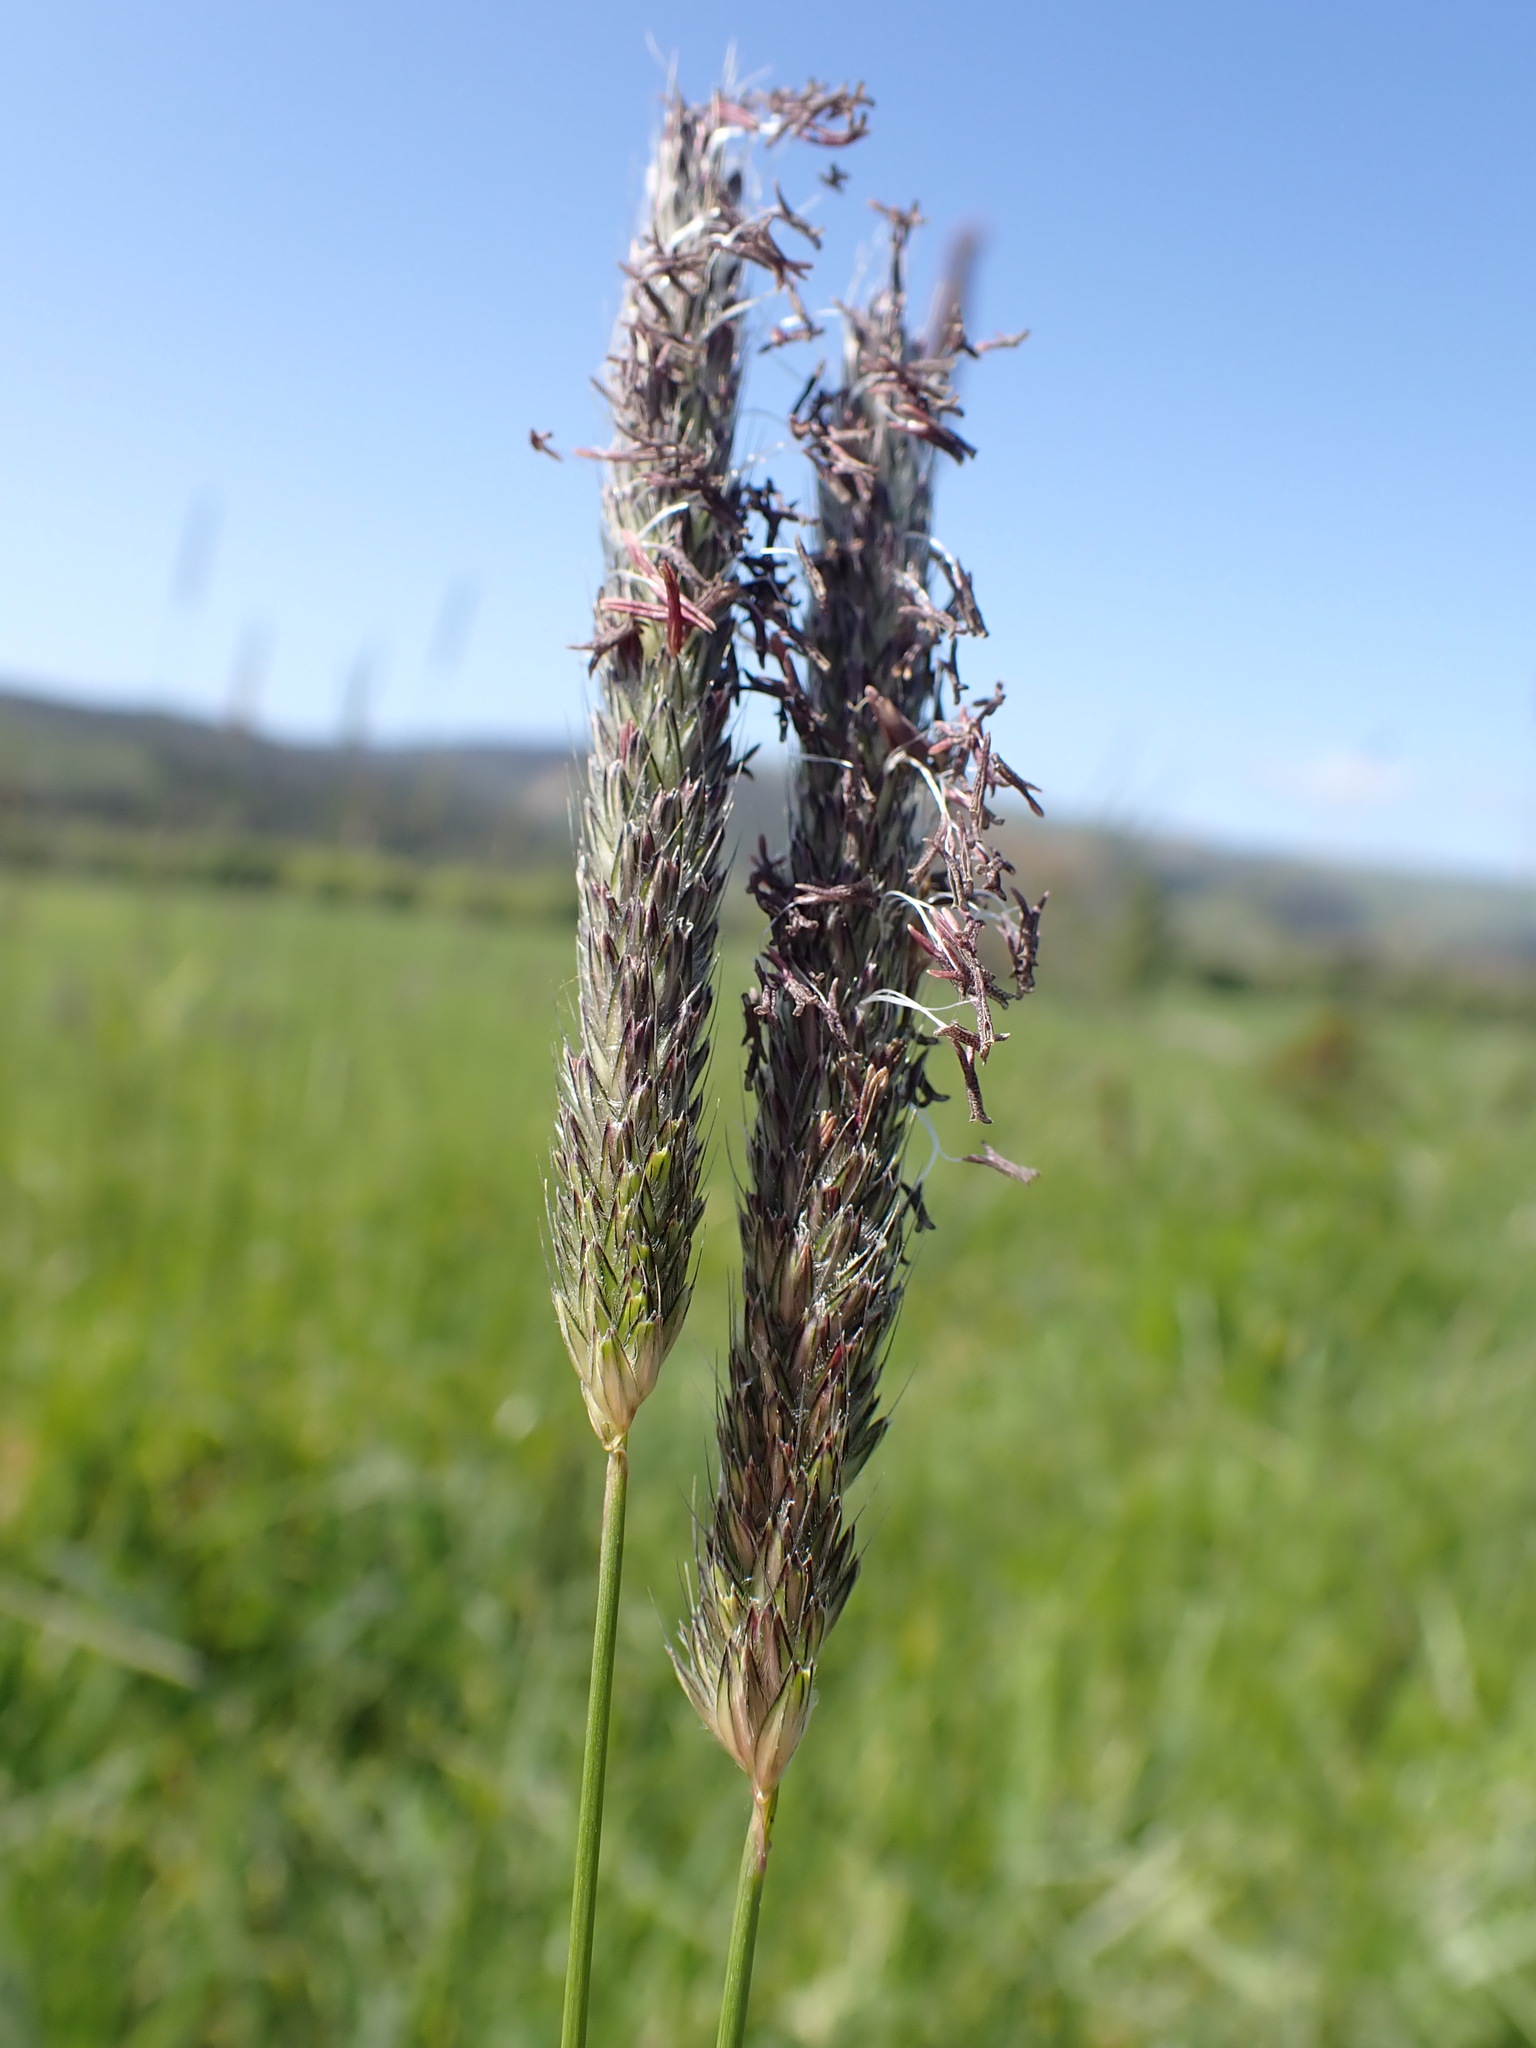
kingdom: Plantae
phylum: Tracheophyta
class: Liliopsida
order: Poales
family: Poaceae
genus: Alopecurus
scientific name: Alopecurus geniculatus
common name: Water foxtail
